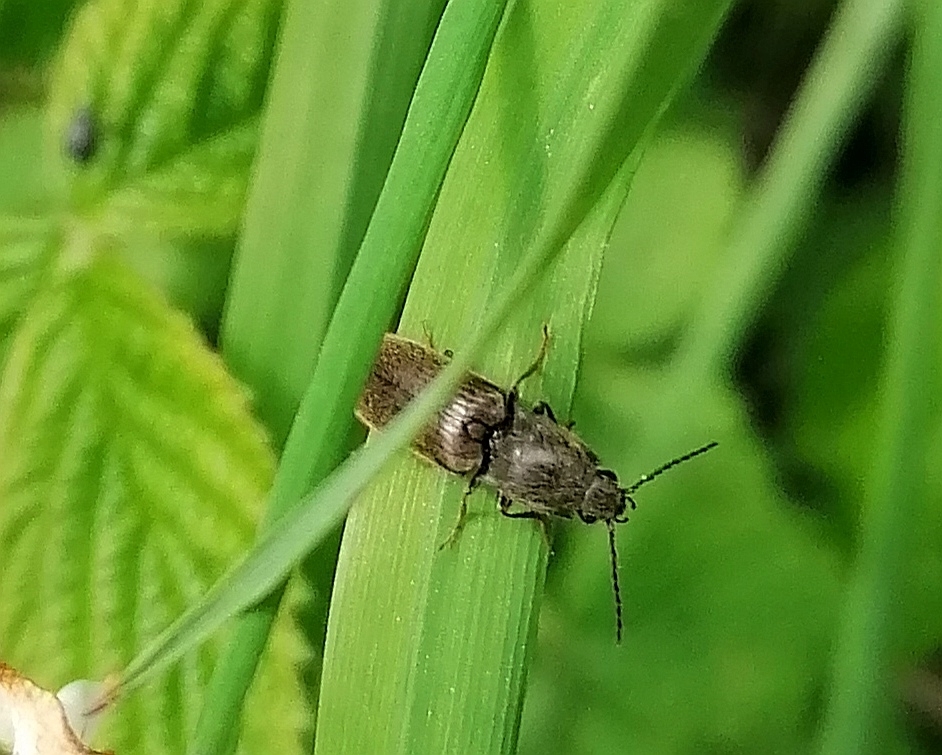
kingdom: Animalia
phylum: Arthropoda
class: Insecta
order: Coleoptera
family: Elateridae
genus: Athous
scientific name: Athous haemorrhoidalis
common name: Red-brown click beetle
